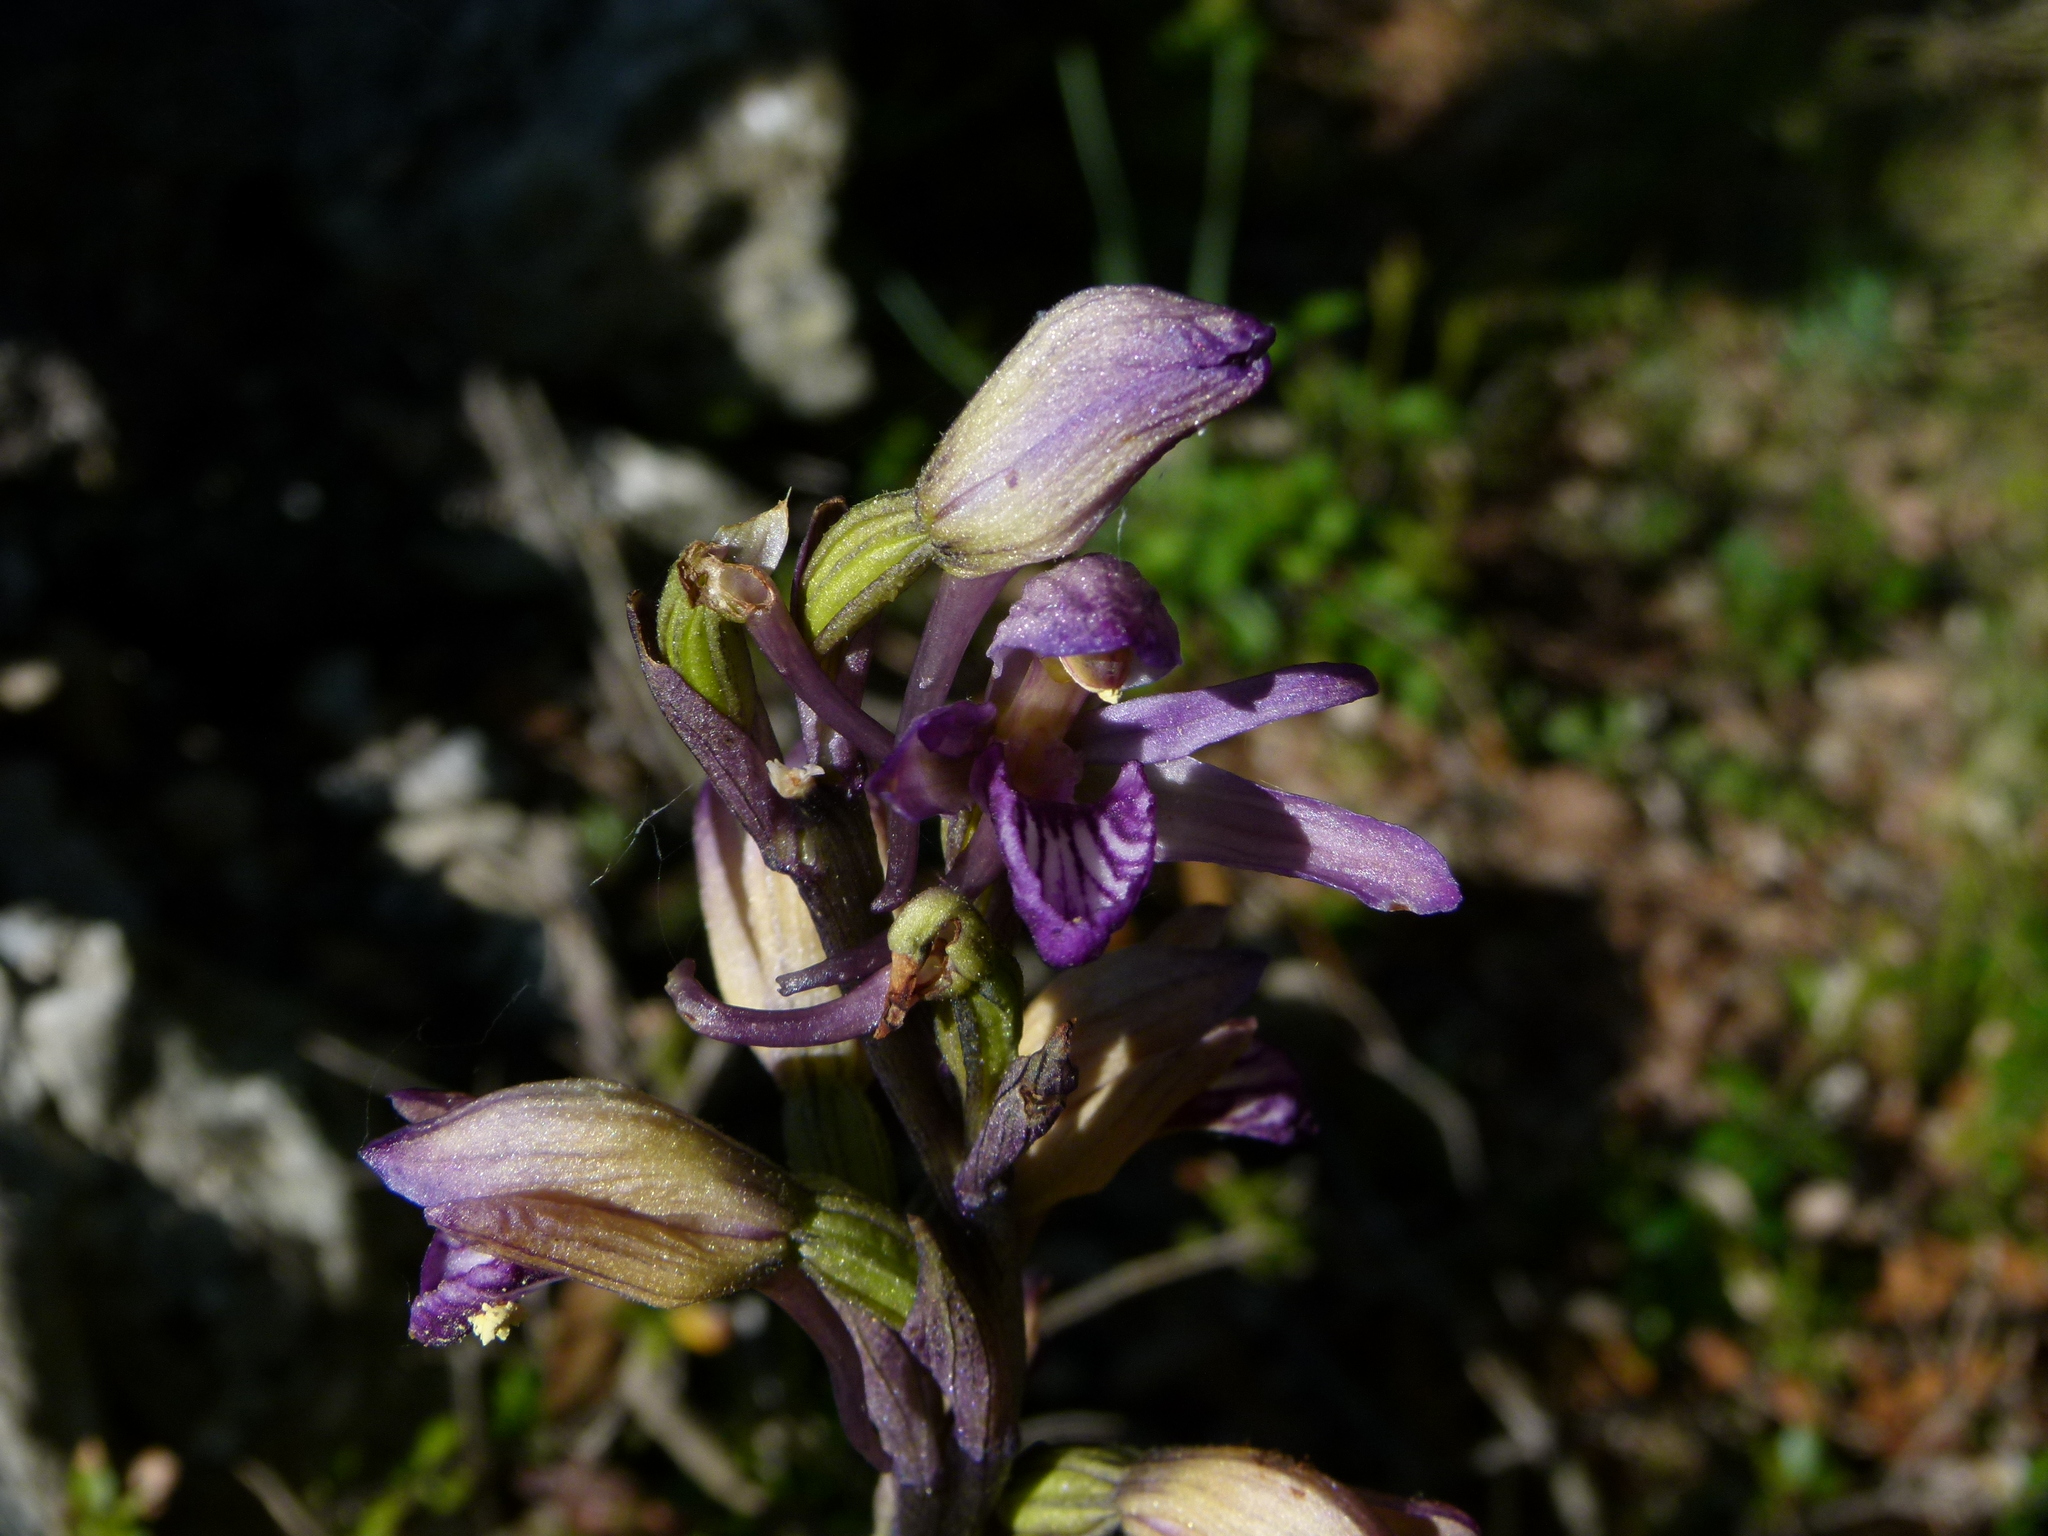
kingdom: Plantae
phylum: Tracheophyta
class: Liliopsida
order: Asparagales
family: Orchidaceae
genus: Limodorum
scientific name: Limodorum abortivum
